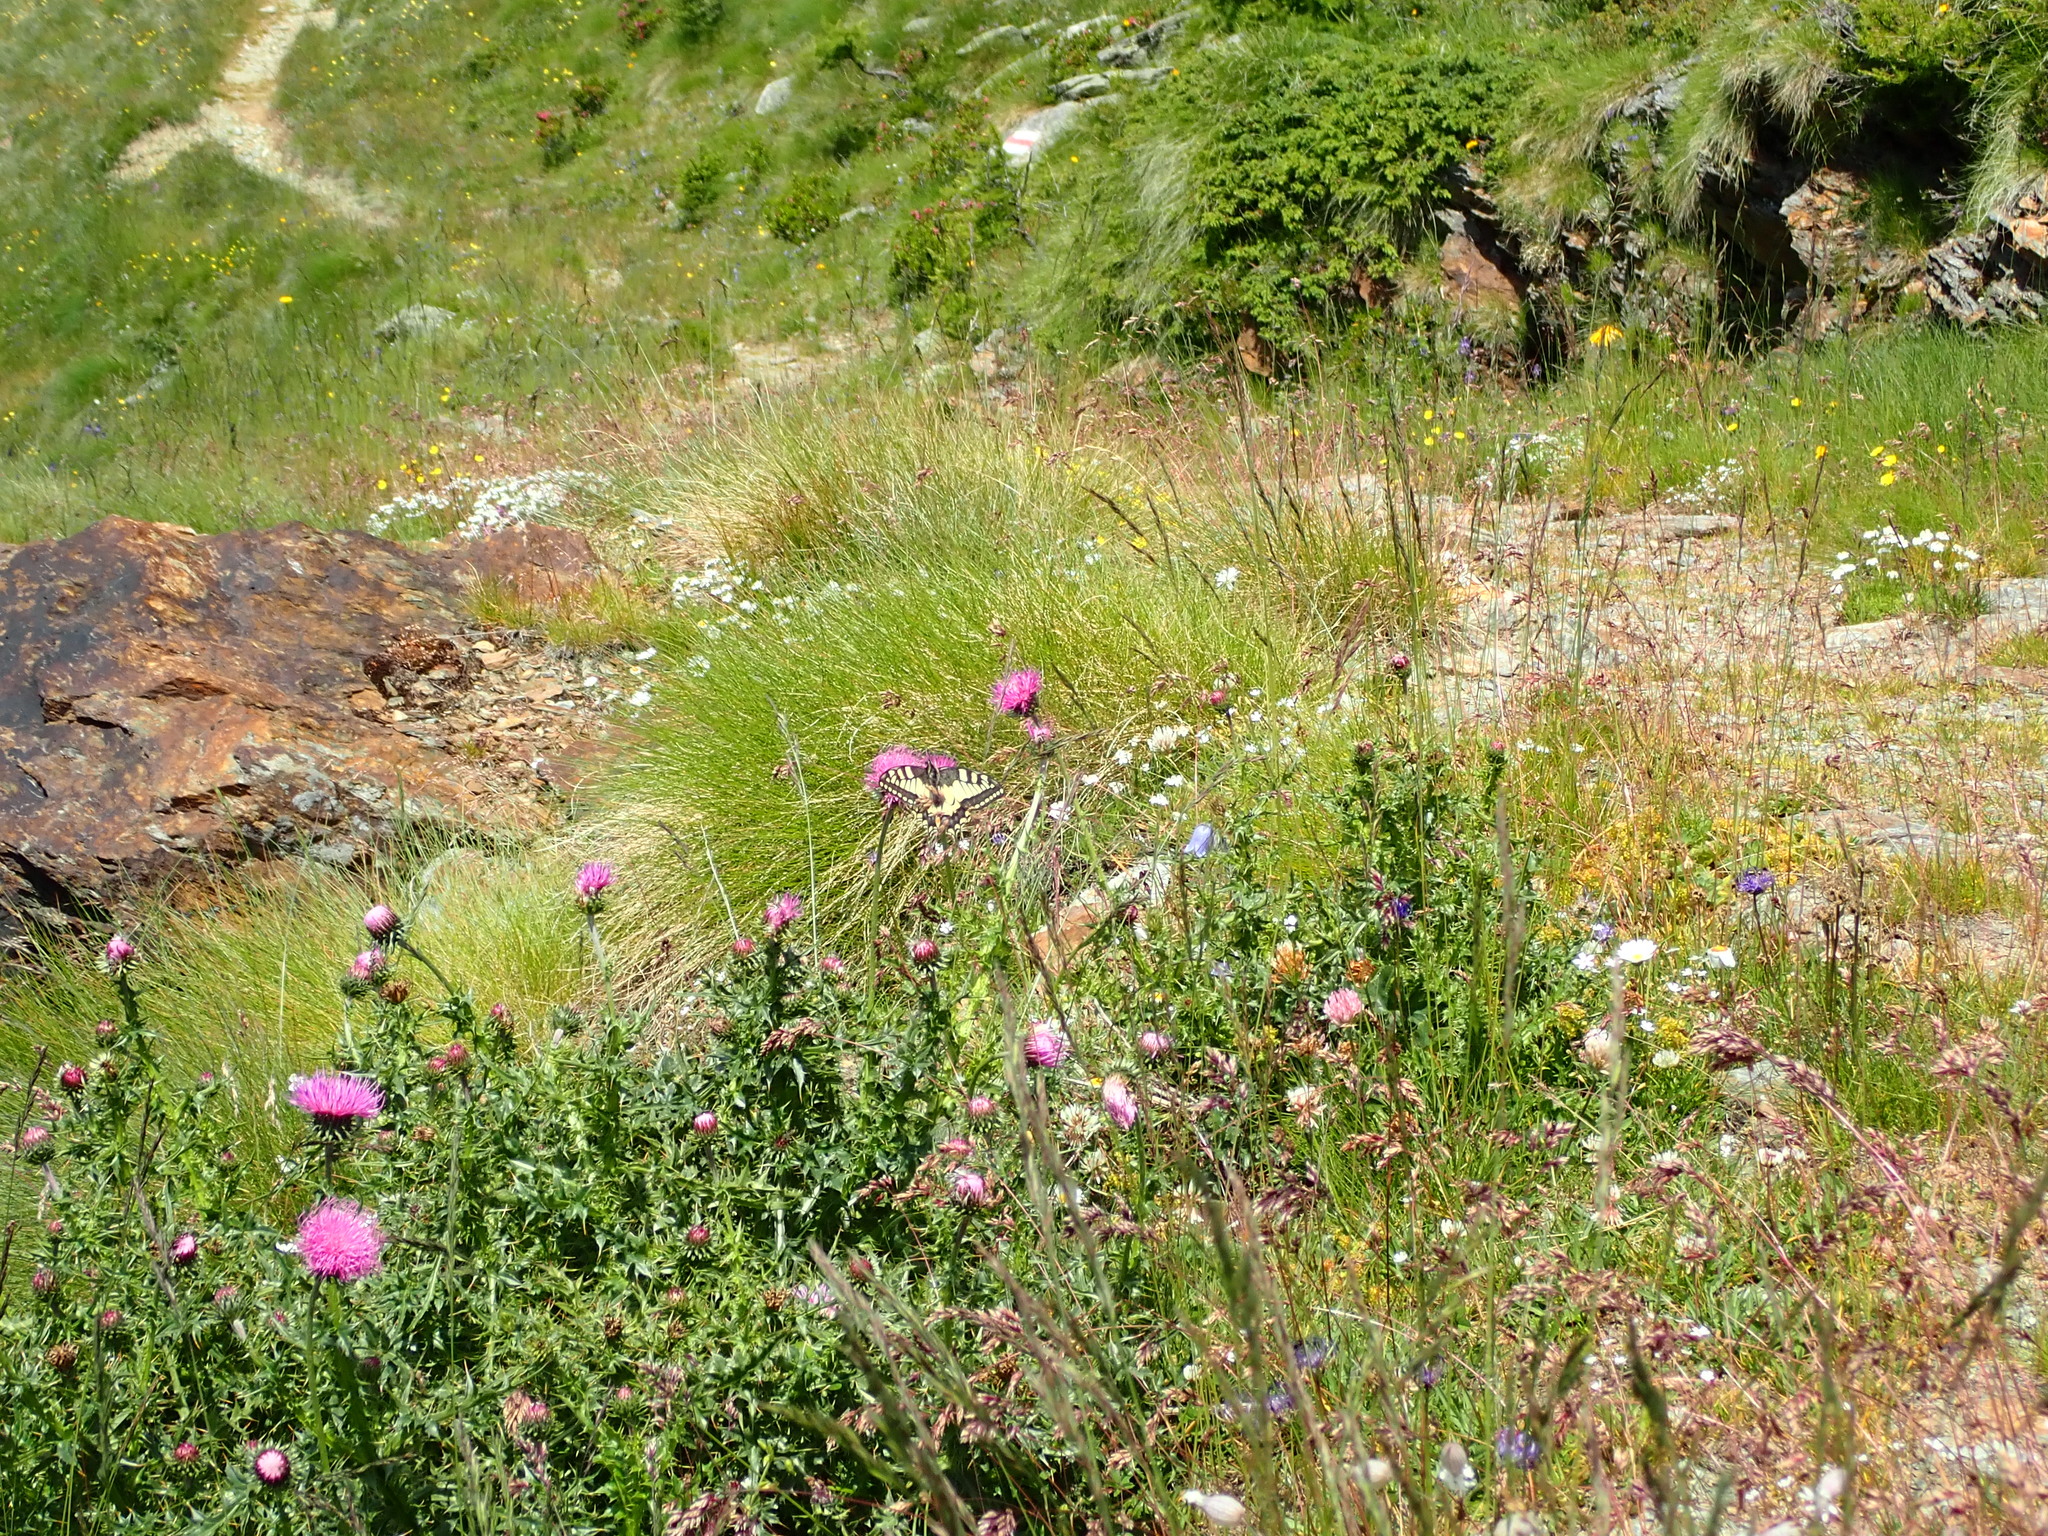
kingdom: Animalia
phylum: Arthropoda
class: Insecta
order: Lepidoptera
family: Papilionidae
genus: Papilio
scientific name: Papilio machaon
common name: Swallowtail
